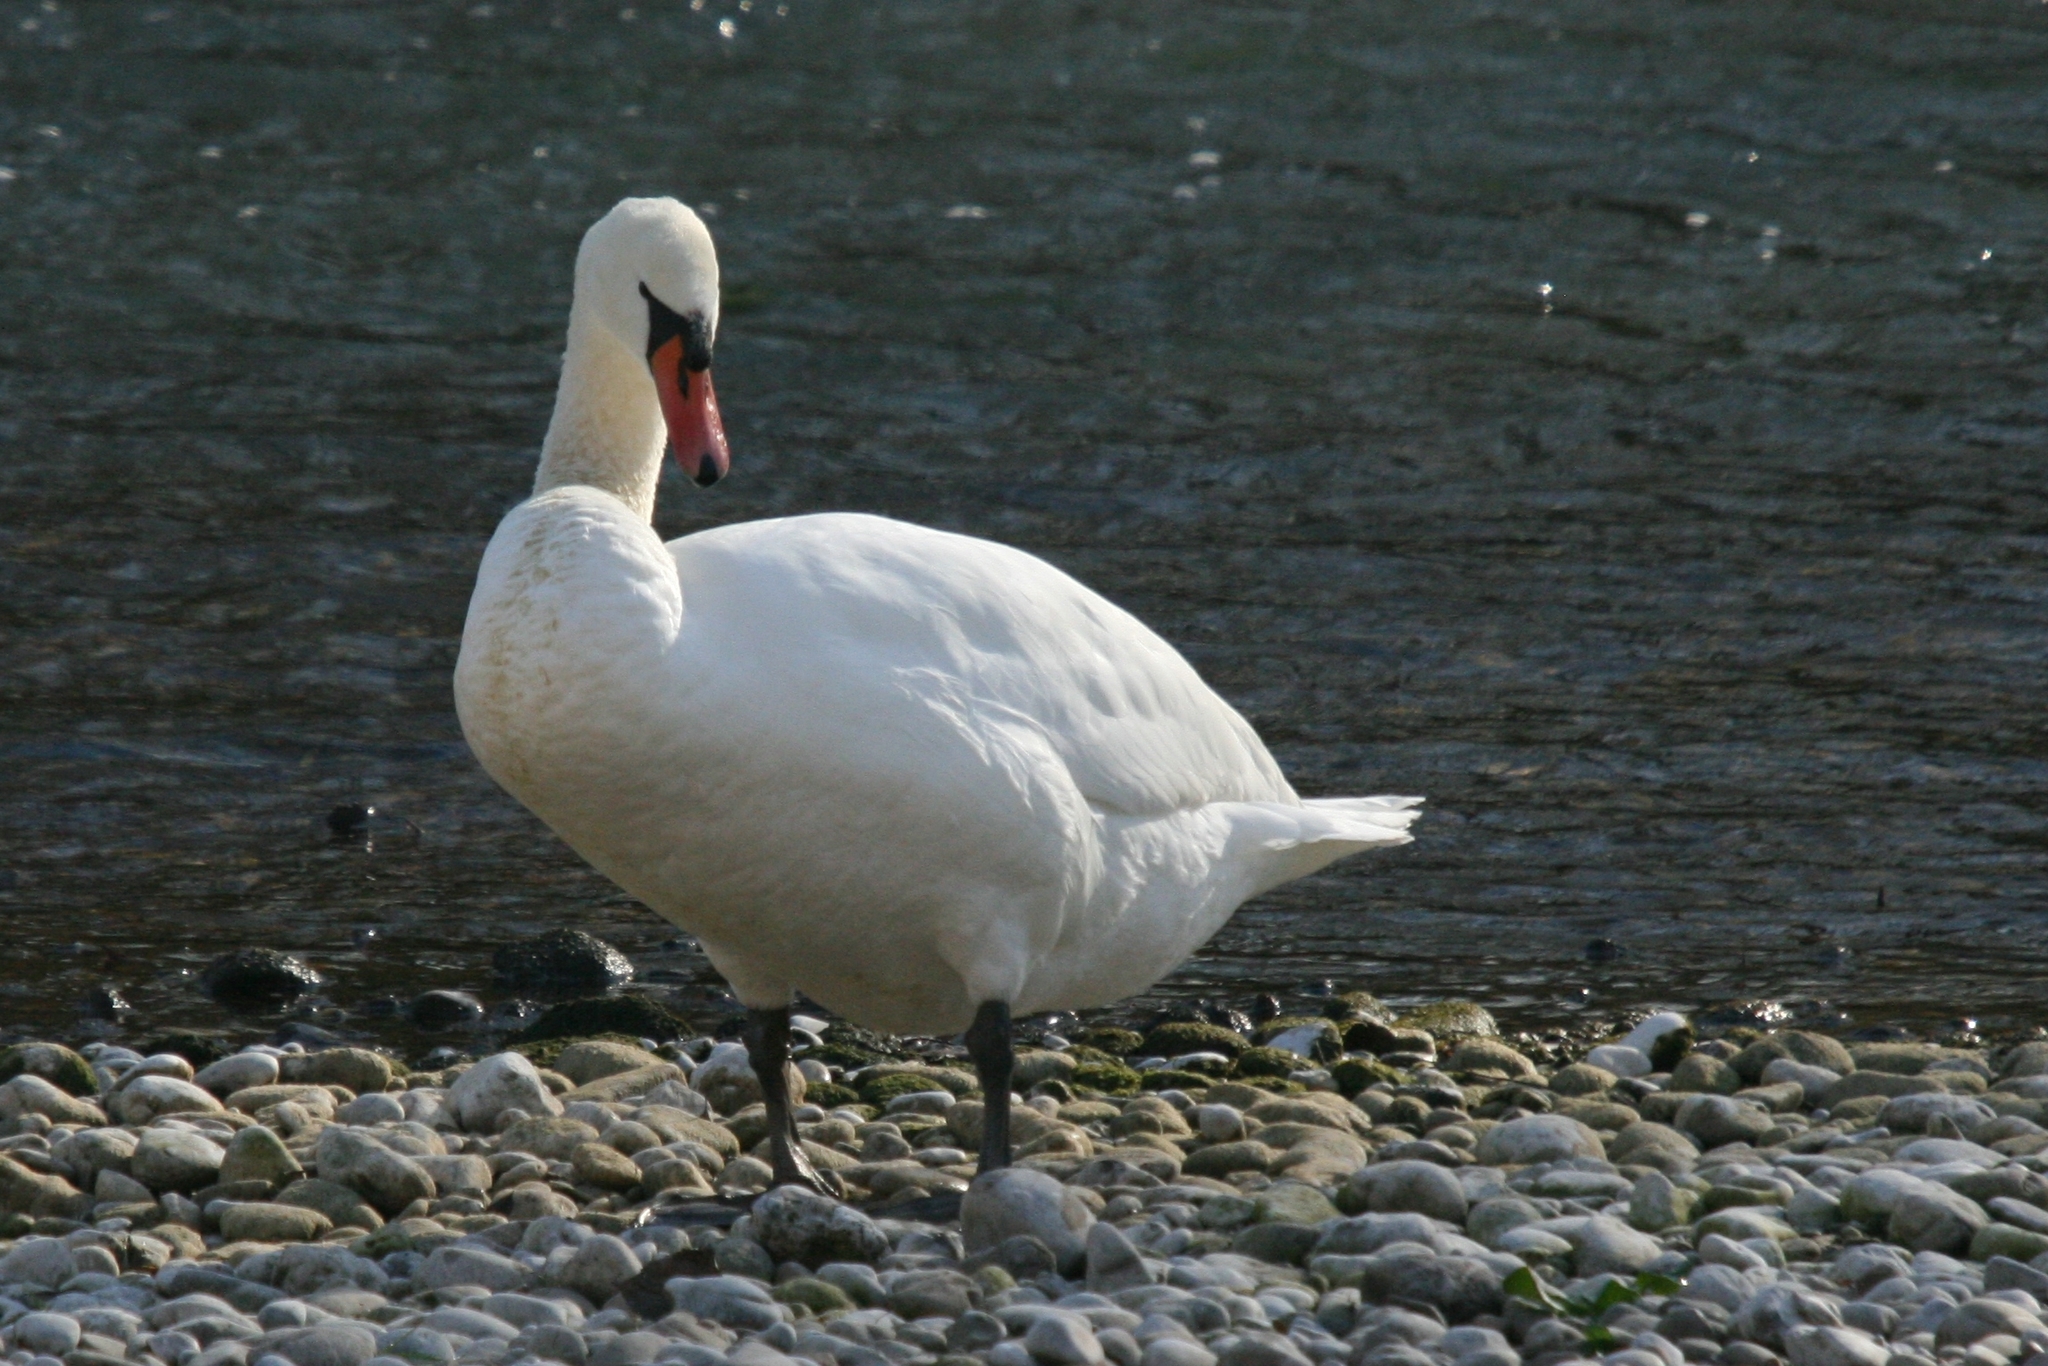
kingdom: Animalia
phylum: Chordata
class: Aves
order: Anseriformes
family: Anatidae
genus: Cygnus
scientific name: Cygnus olor
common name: Mute swan
